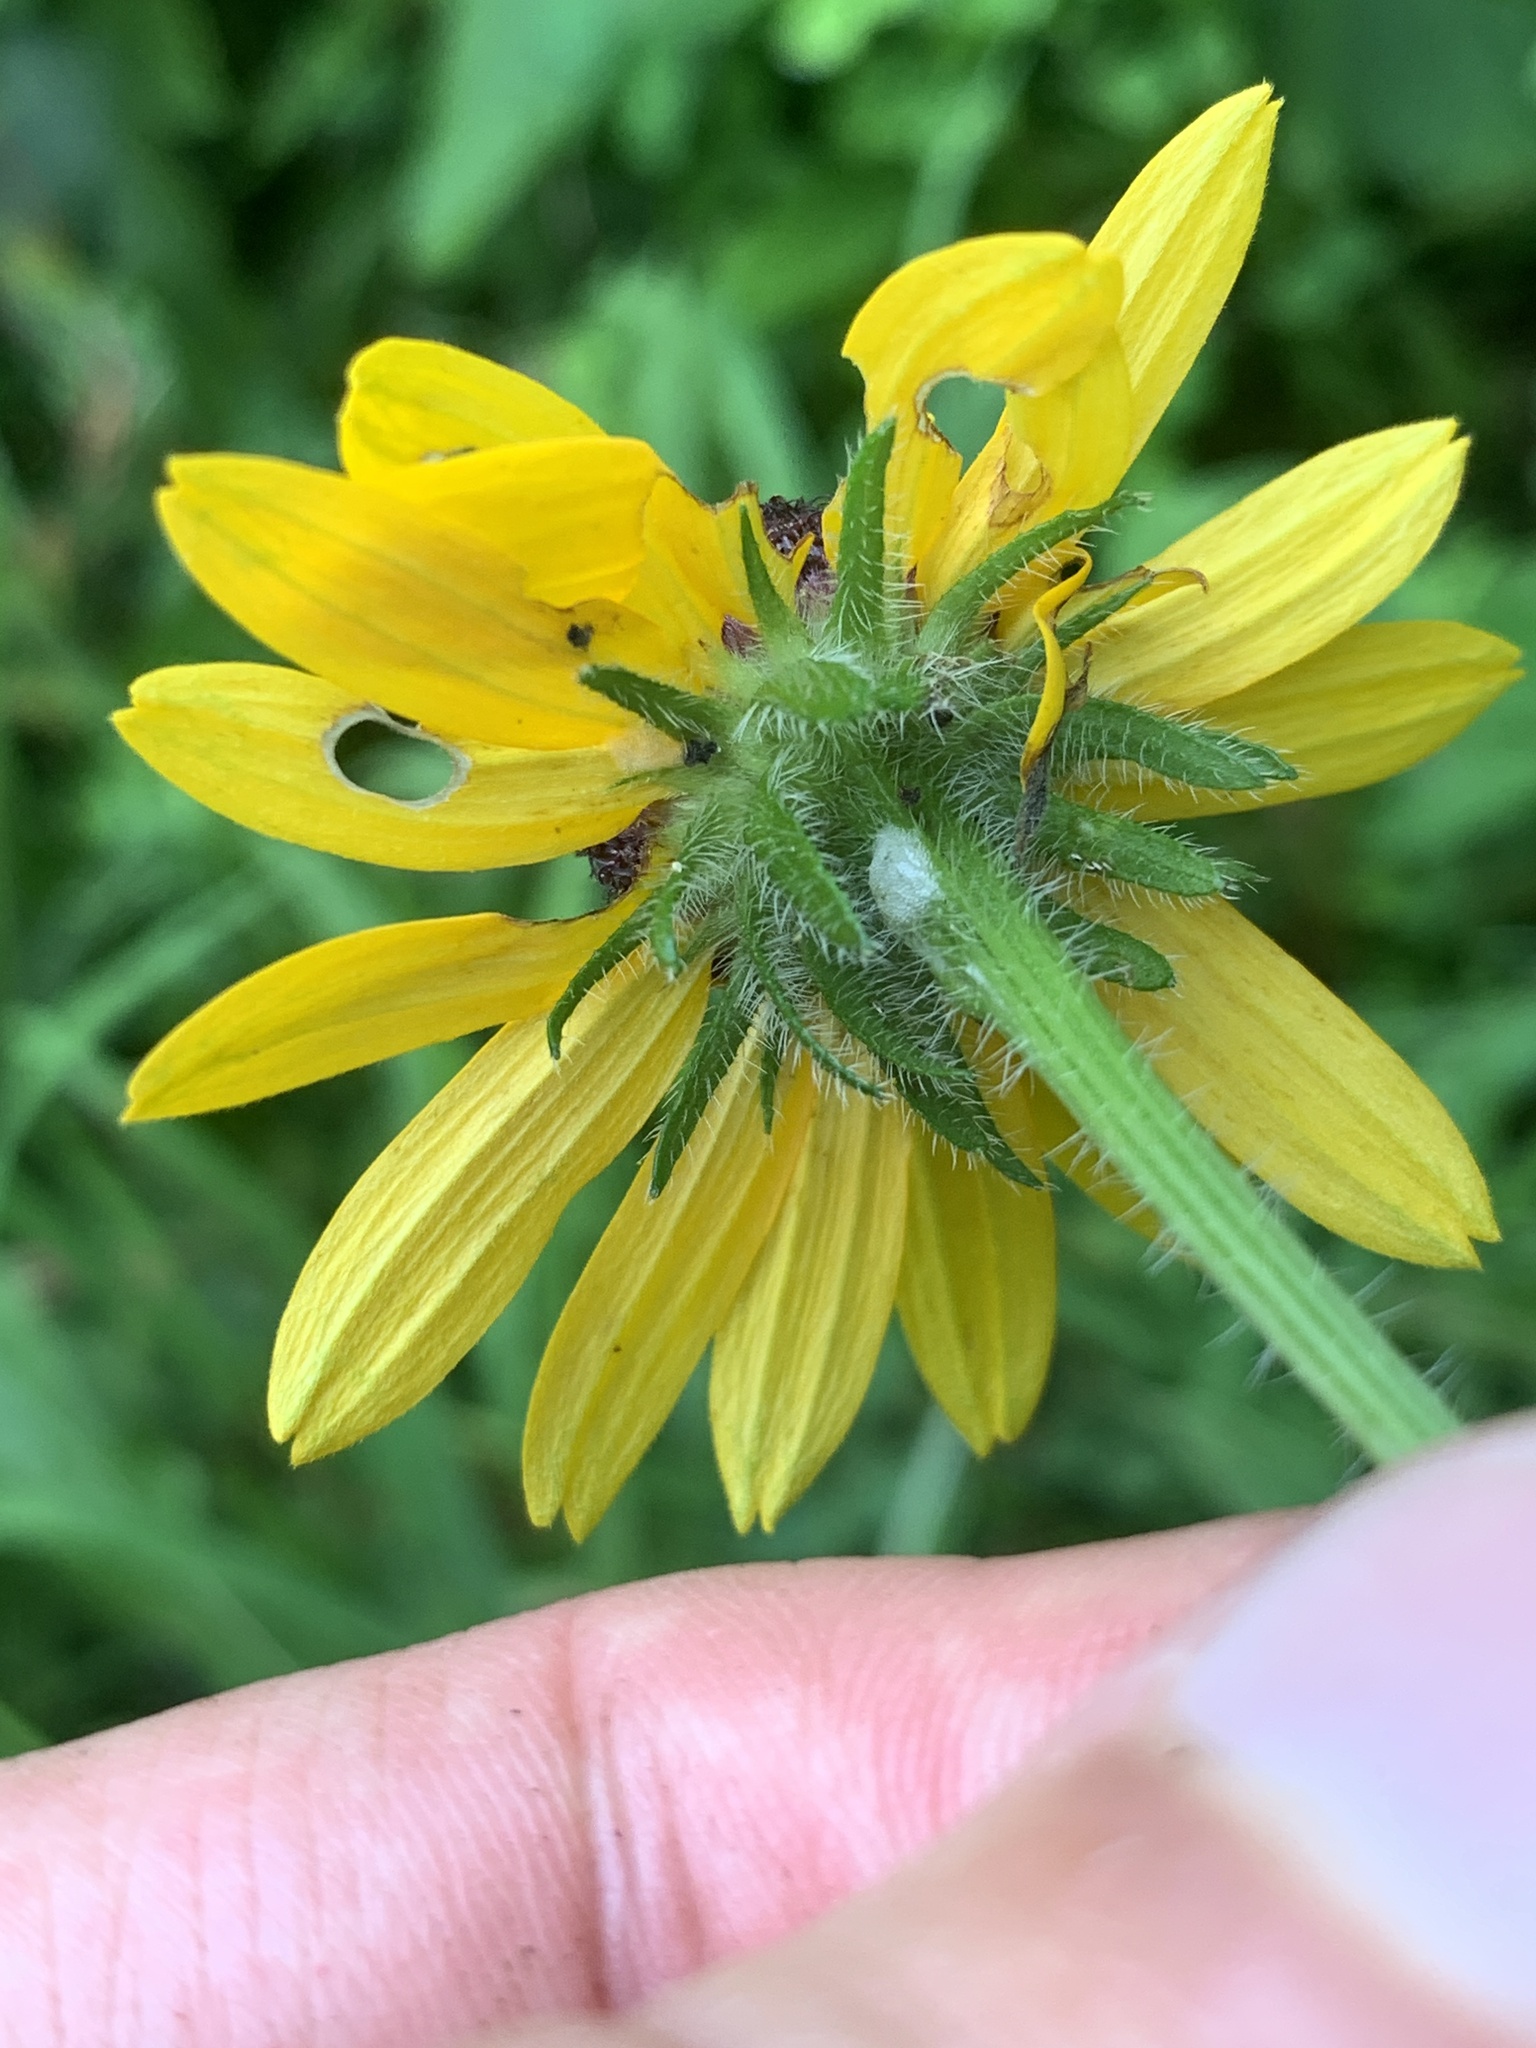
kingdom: Plantae
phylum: Tracheophyta
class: Magnoliopsida
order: Asterales
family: Asteraceae
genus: Rudbeckia
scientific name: Rudbeckia hirta
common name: Black-eyed-susan
